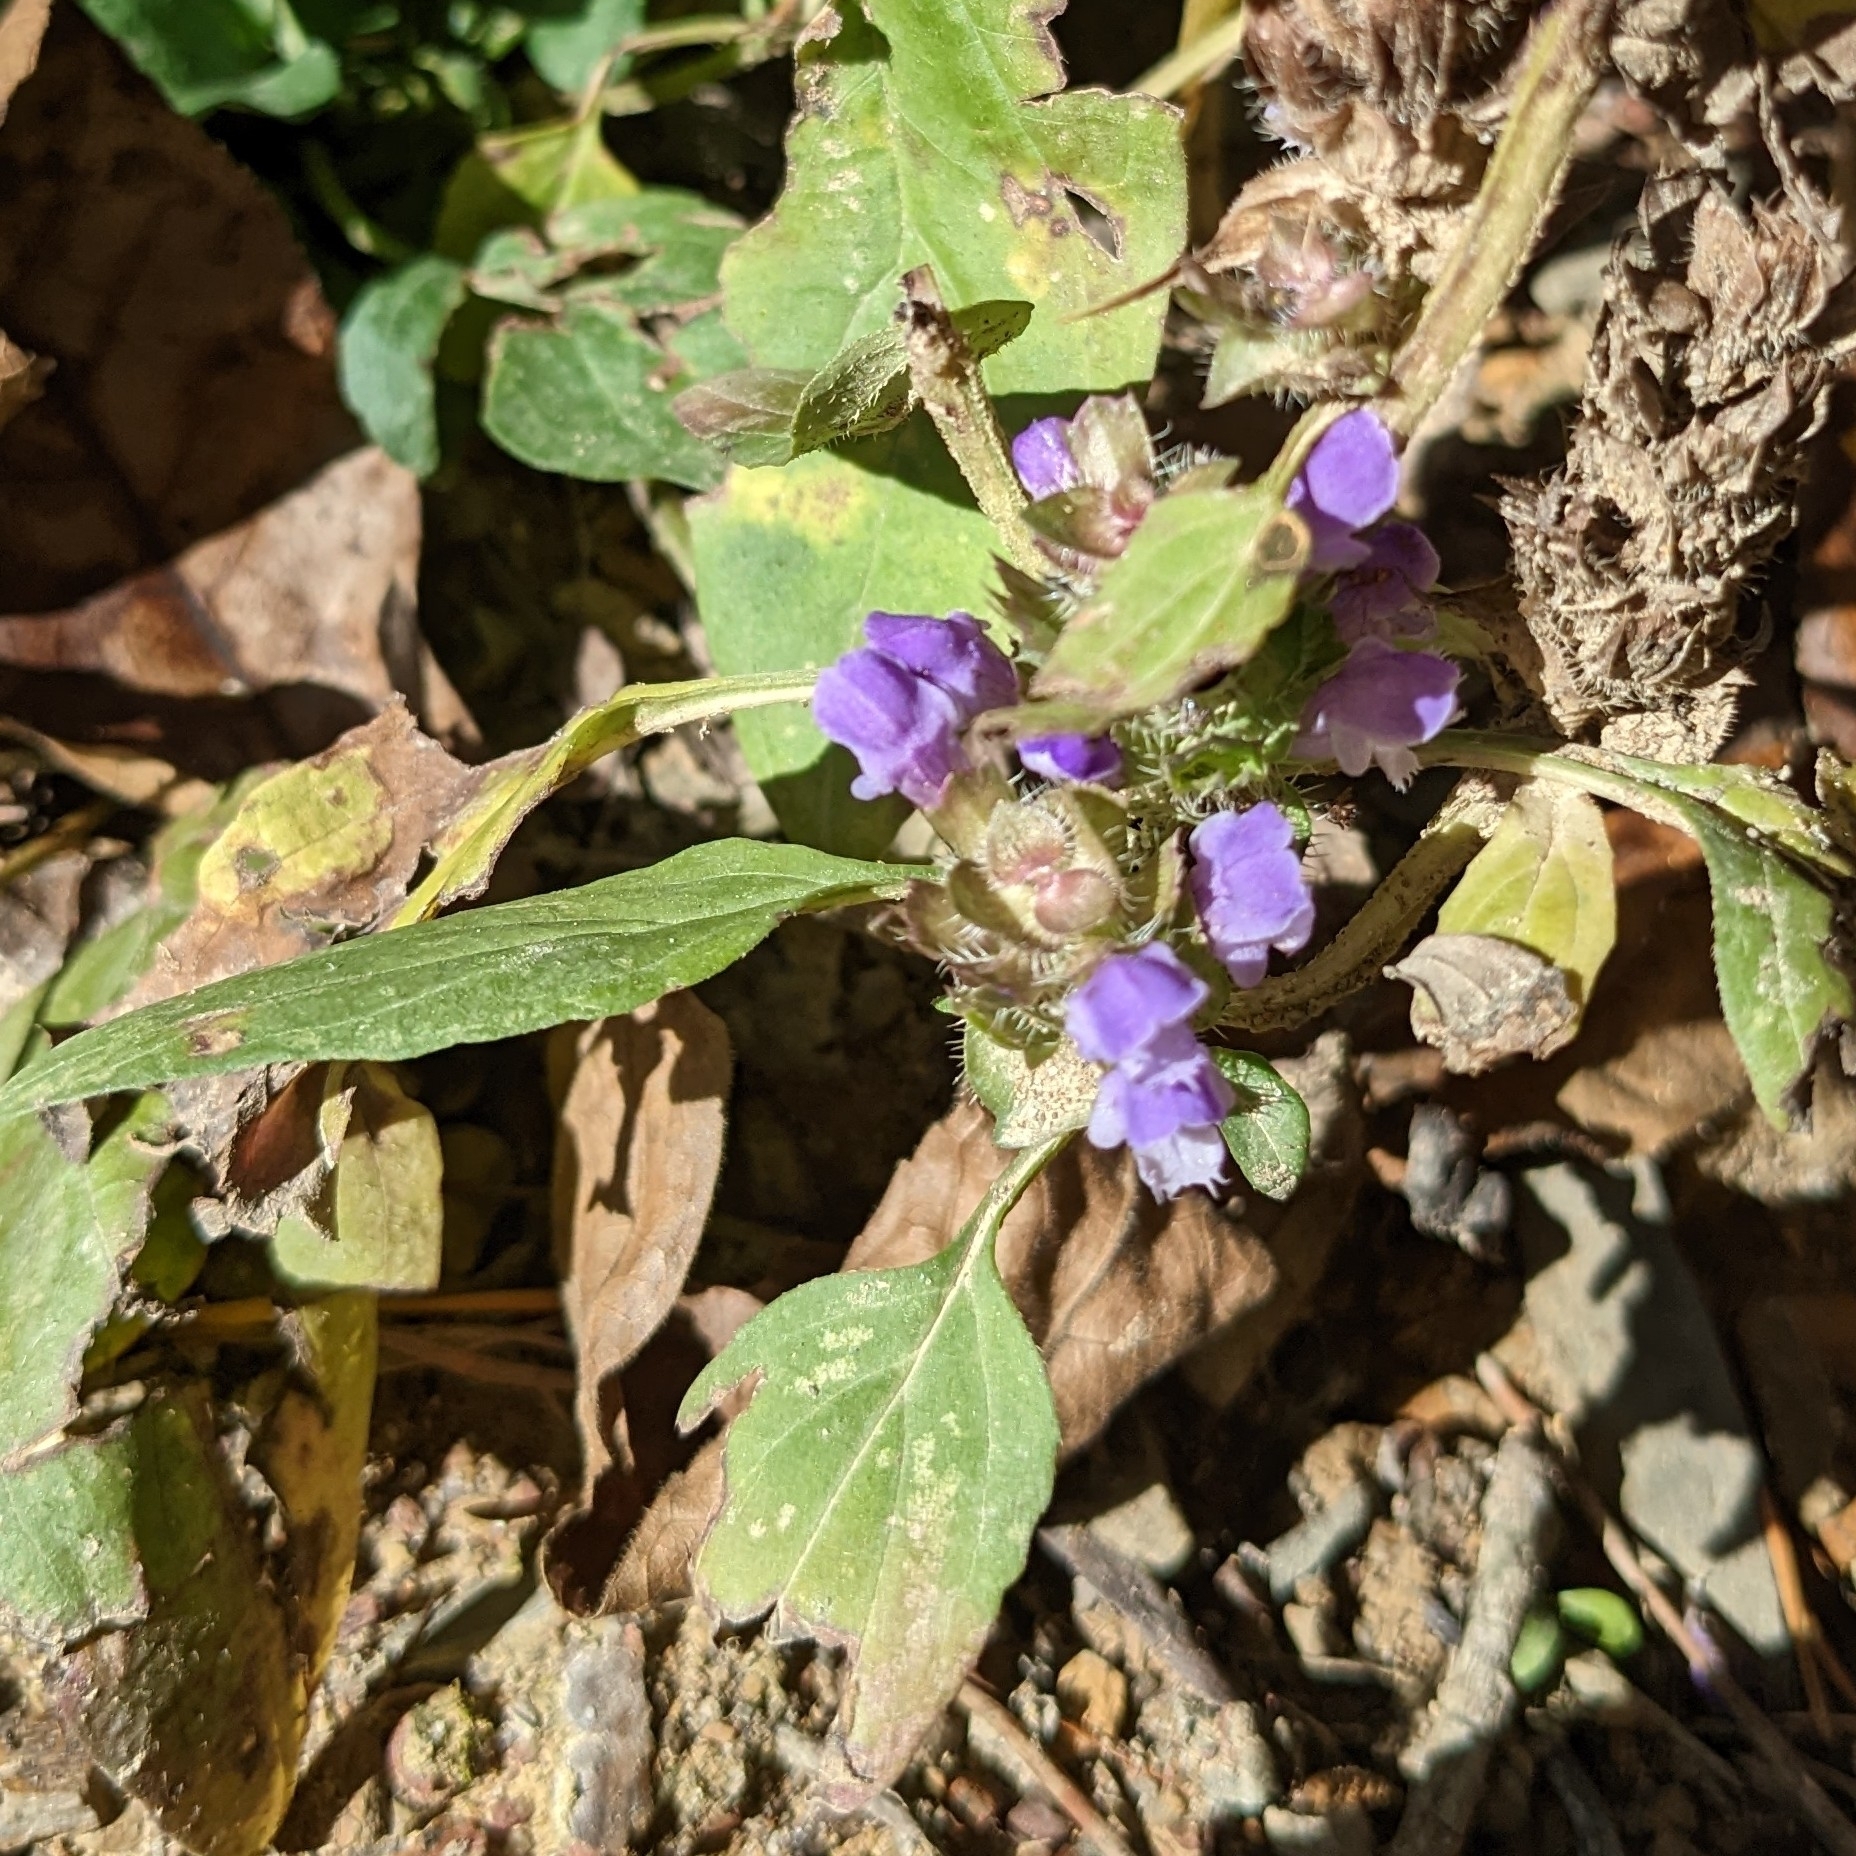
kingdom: Plantae
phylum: Tracheophyta
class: Magnoliopsida
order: Lamiales
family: Lamiaceae
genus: Prunella
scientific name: Prunella vulgaris
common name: Heal-all
